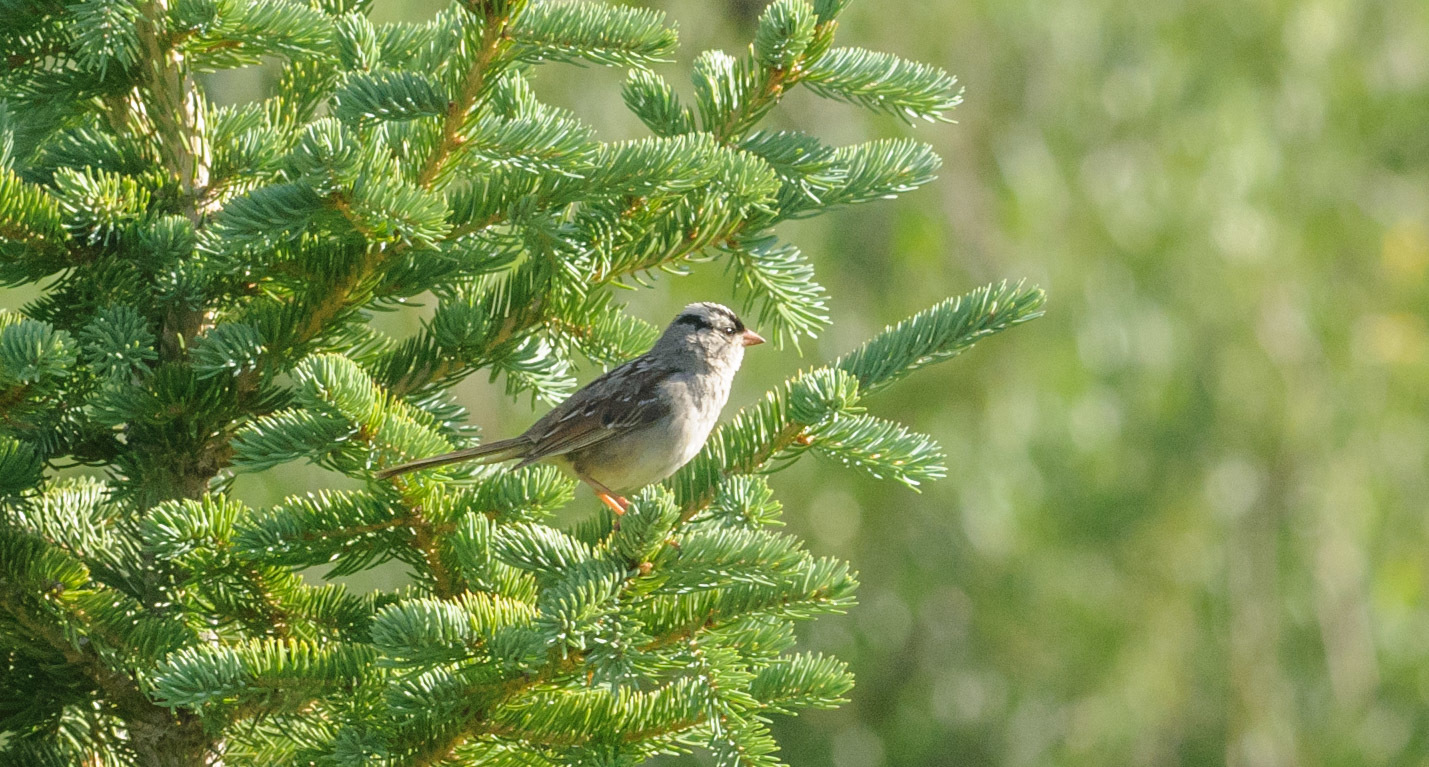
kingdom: Animalia
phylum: Chordata
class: Aves
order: Passeriformes
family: Passerellidae
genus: Zonotrichia
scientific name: Zonotrichia leucophrys
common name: White-crowned sparrow
